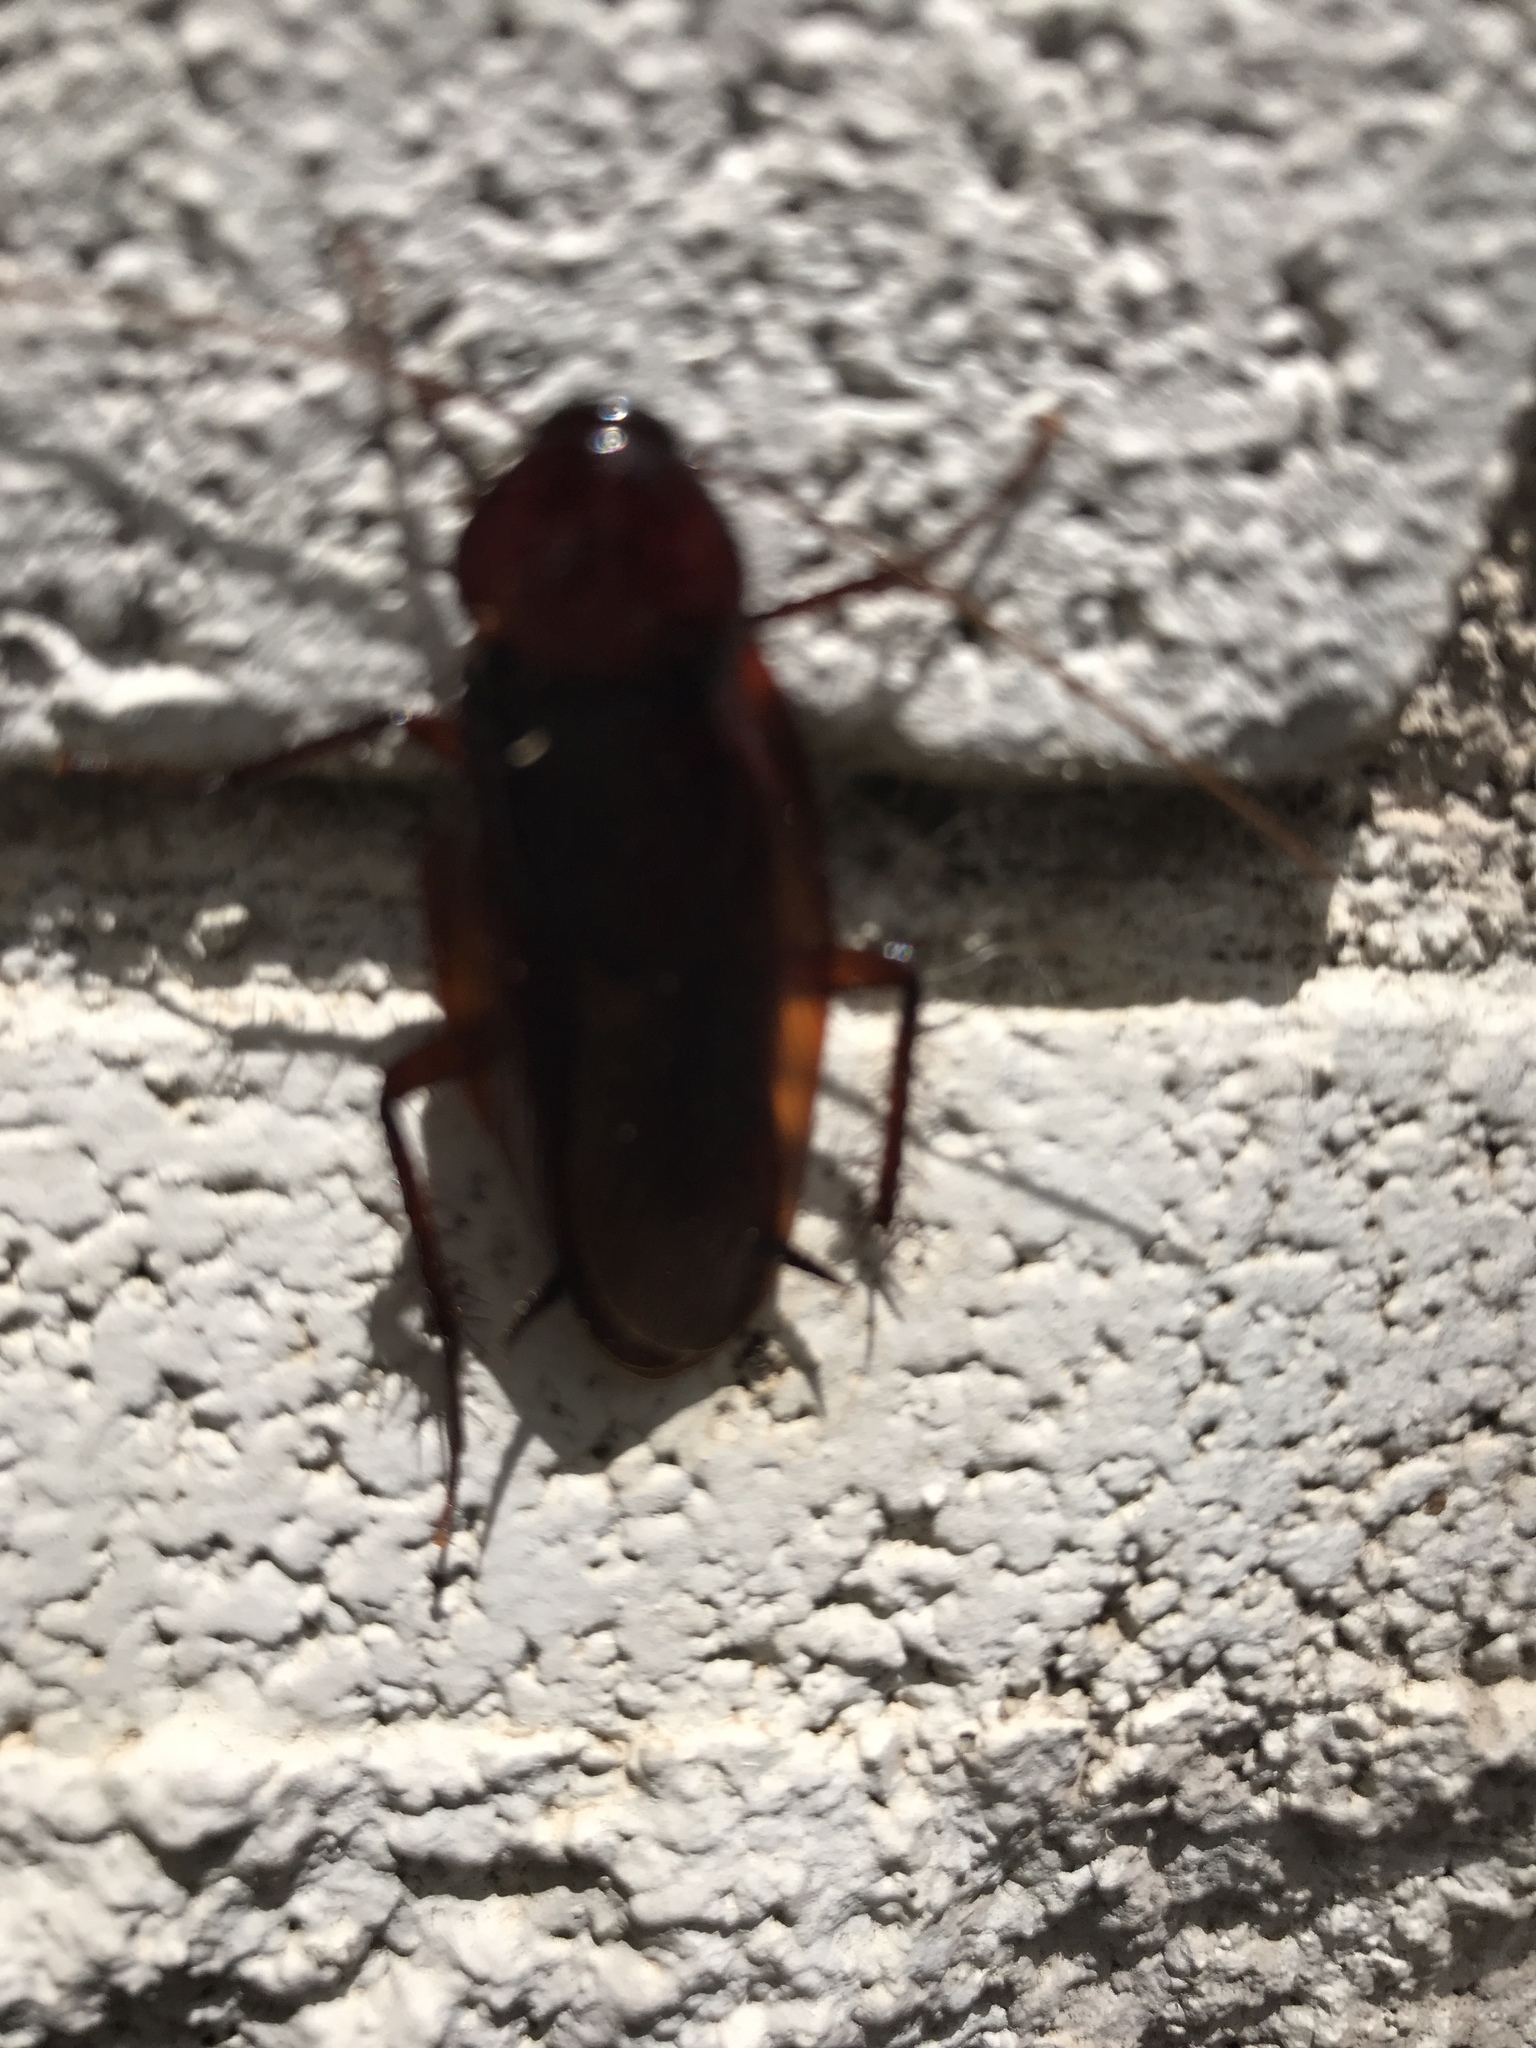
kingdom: Animalia
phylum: Arthropoda
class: Insecta
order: Blattodea
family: Blattidae
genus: Periplaneta
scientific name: Periplaneta americana
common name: American cockroach
